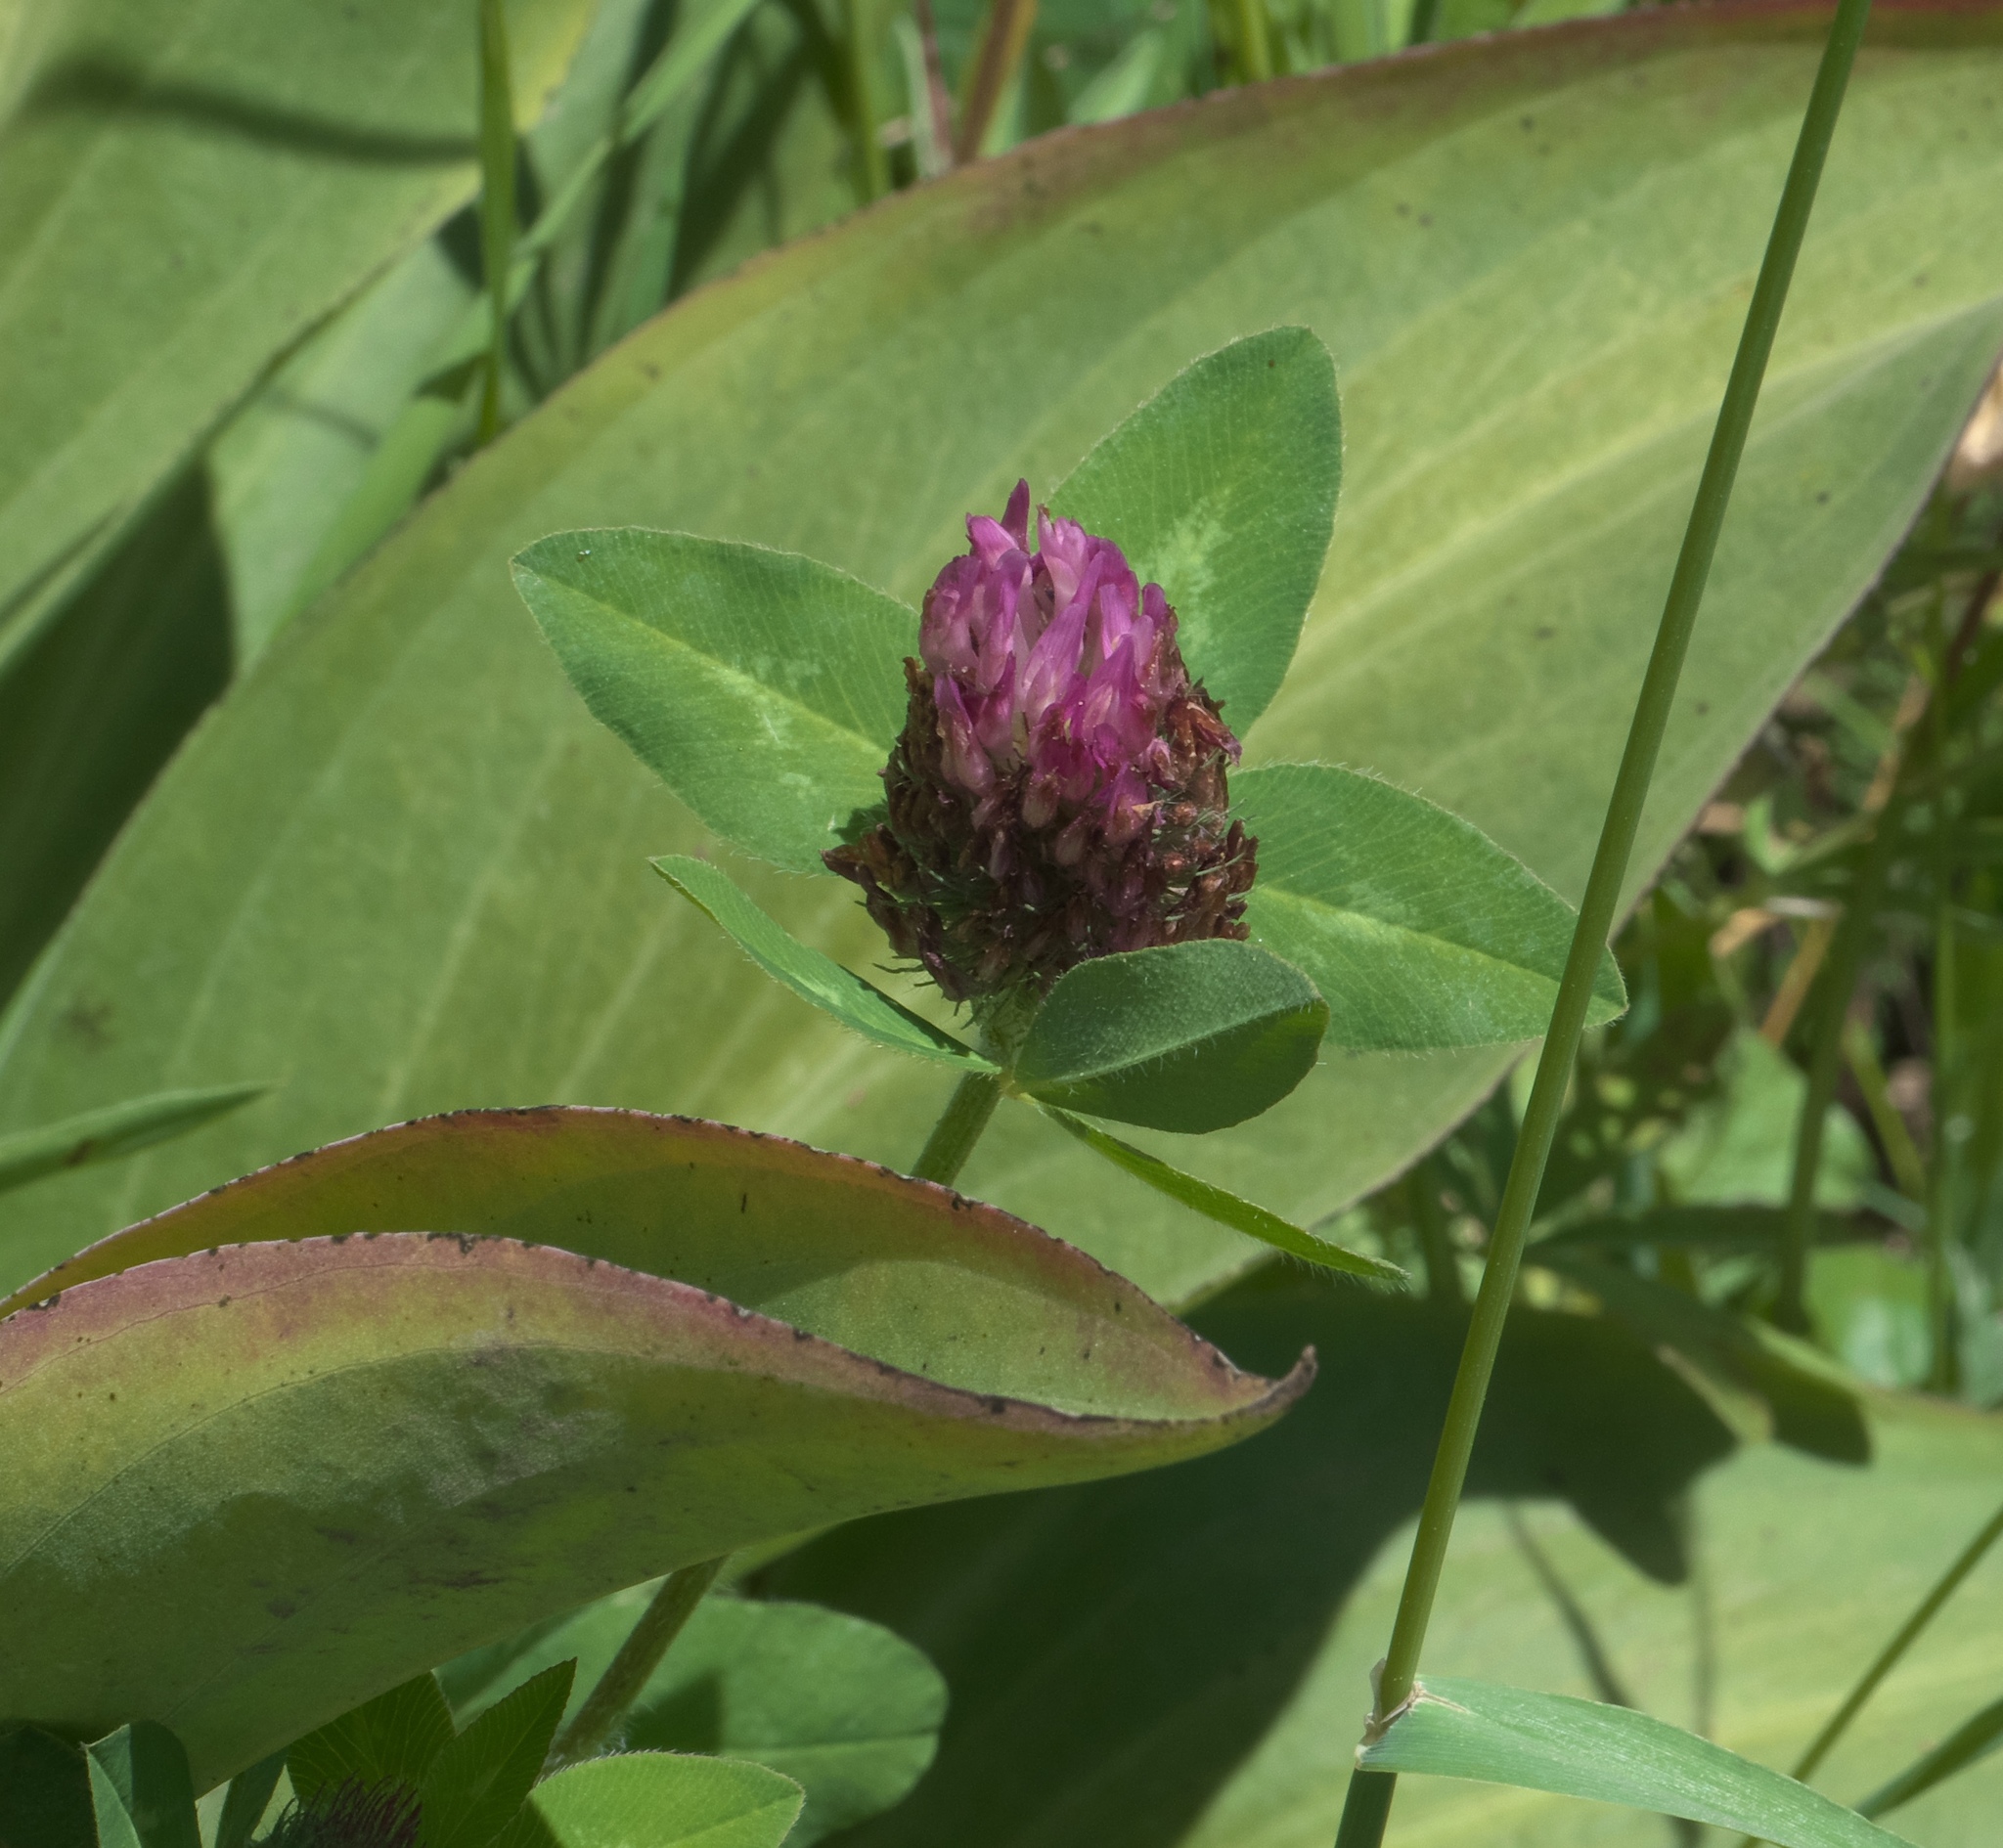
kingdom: Plantae
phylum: Tracheophyta
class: Magnoliopsida
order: Fabales
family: Fabaceae
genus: Trifolium
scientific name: Trifolium pratense
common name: Red clover
